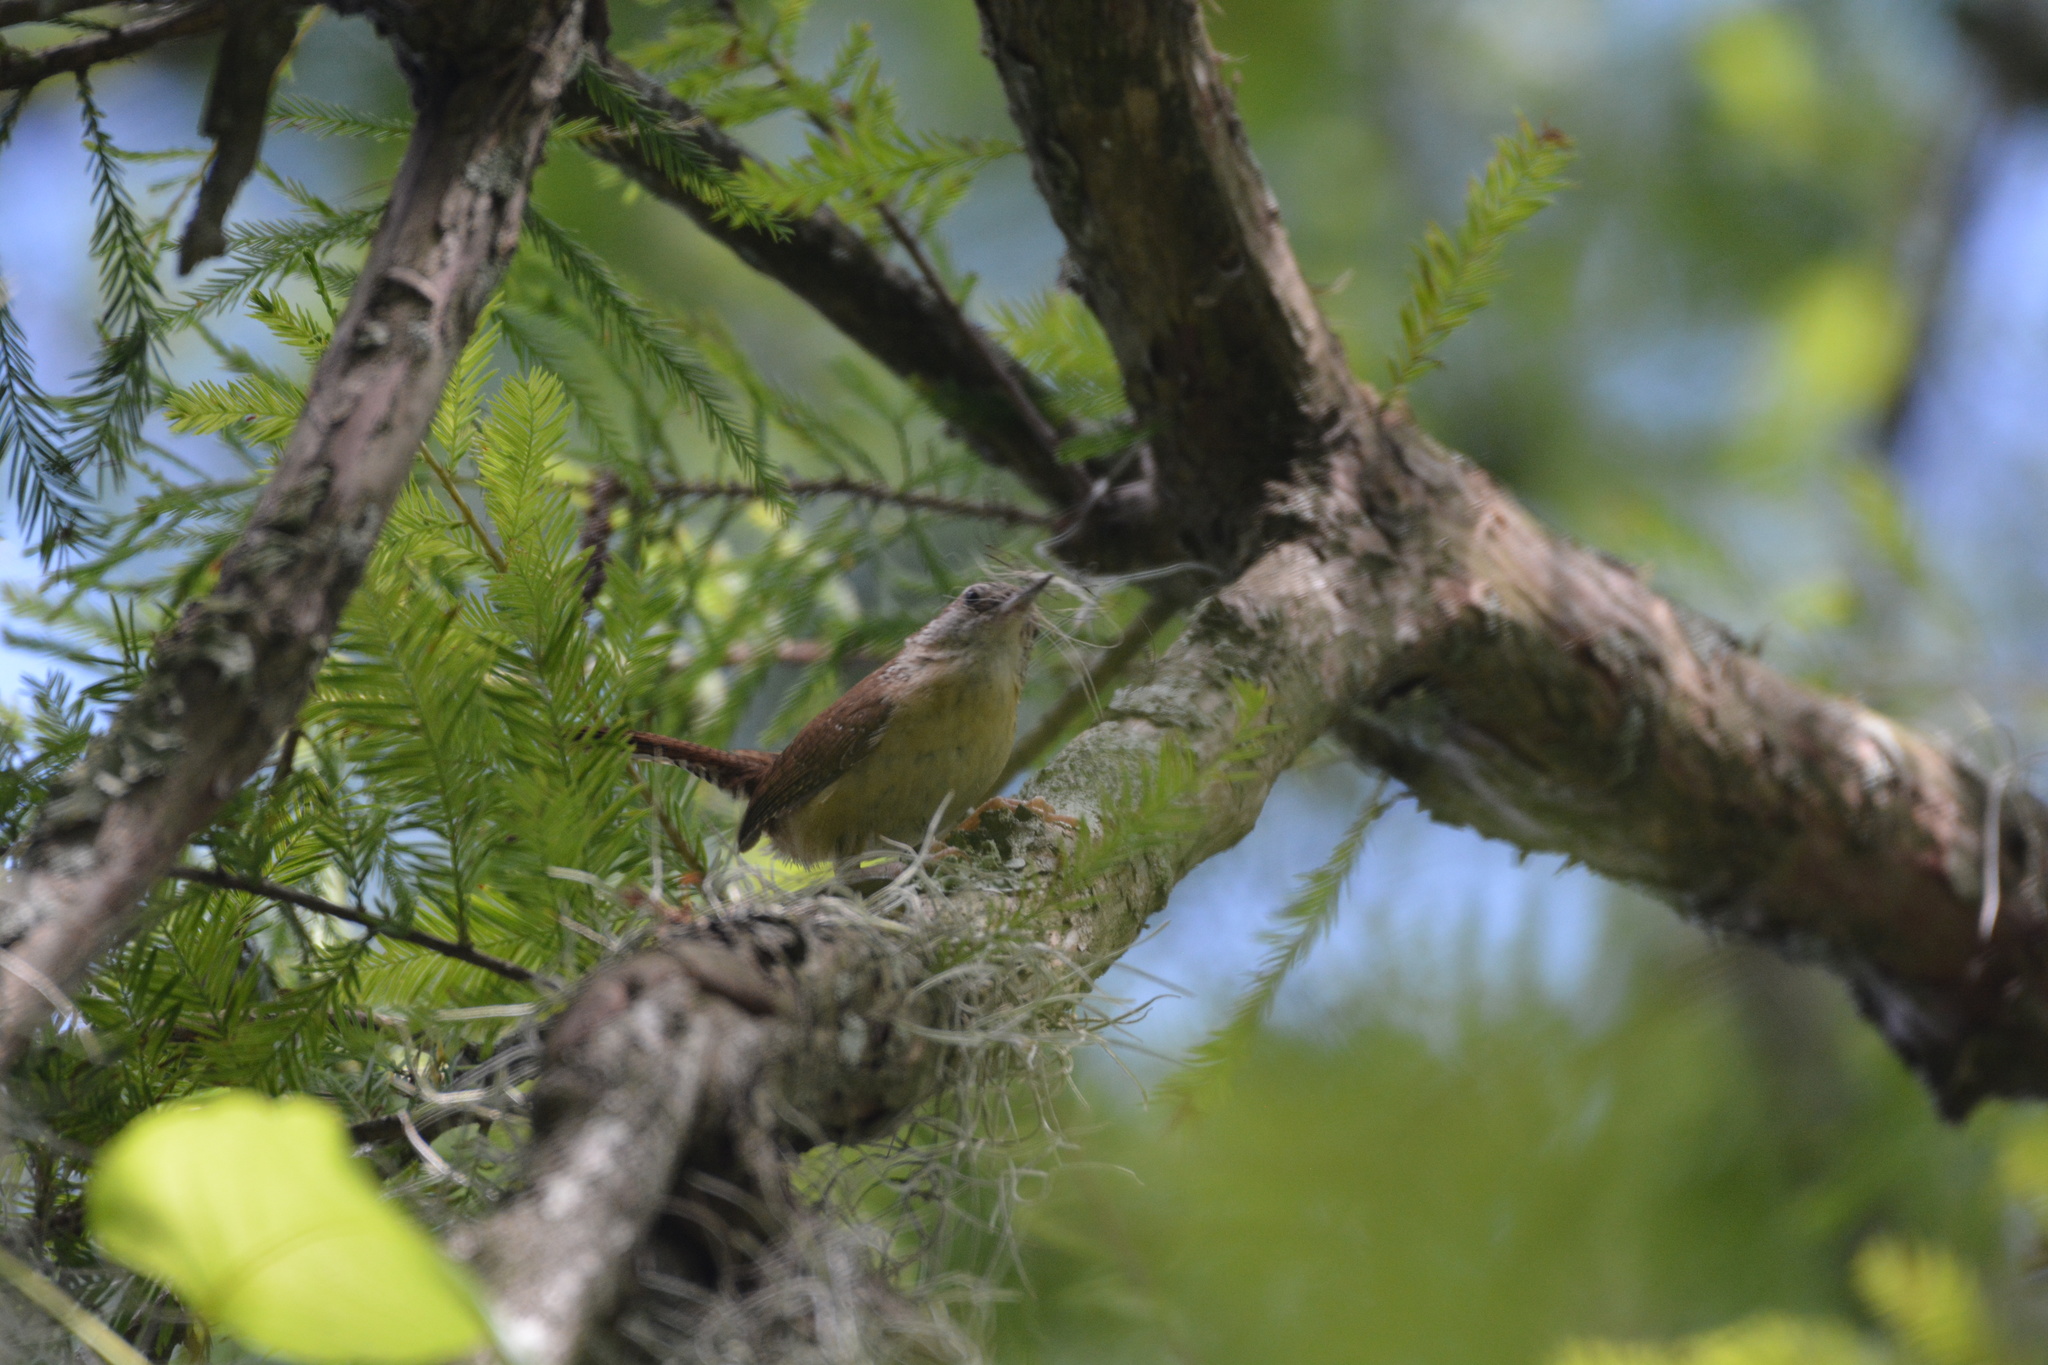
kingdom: Animalia
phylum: Chordata
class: Aves
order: Passeriformes
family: Troglodytidae
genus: Thryothorus
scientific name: Thryothorus ludovicianus
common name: Carolina wren
